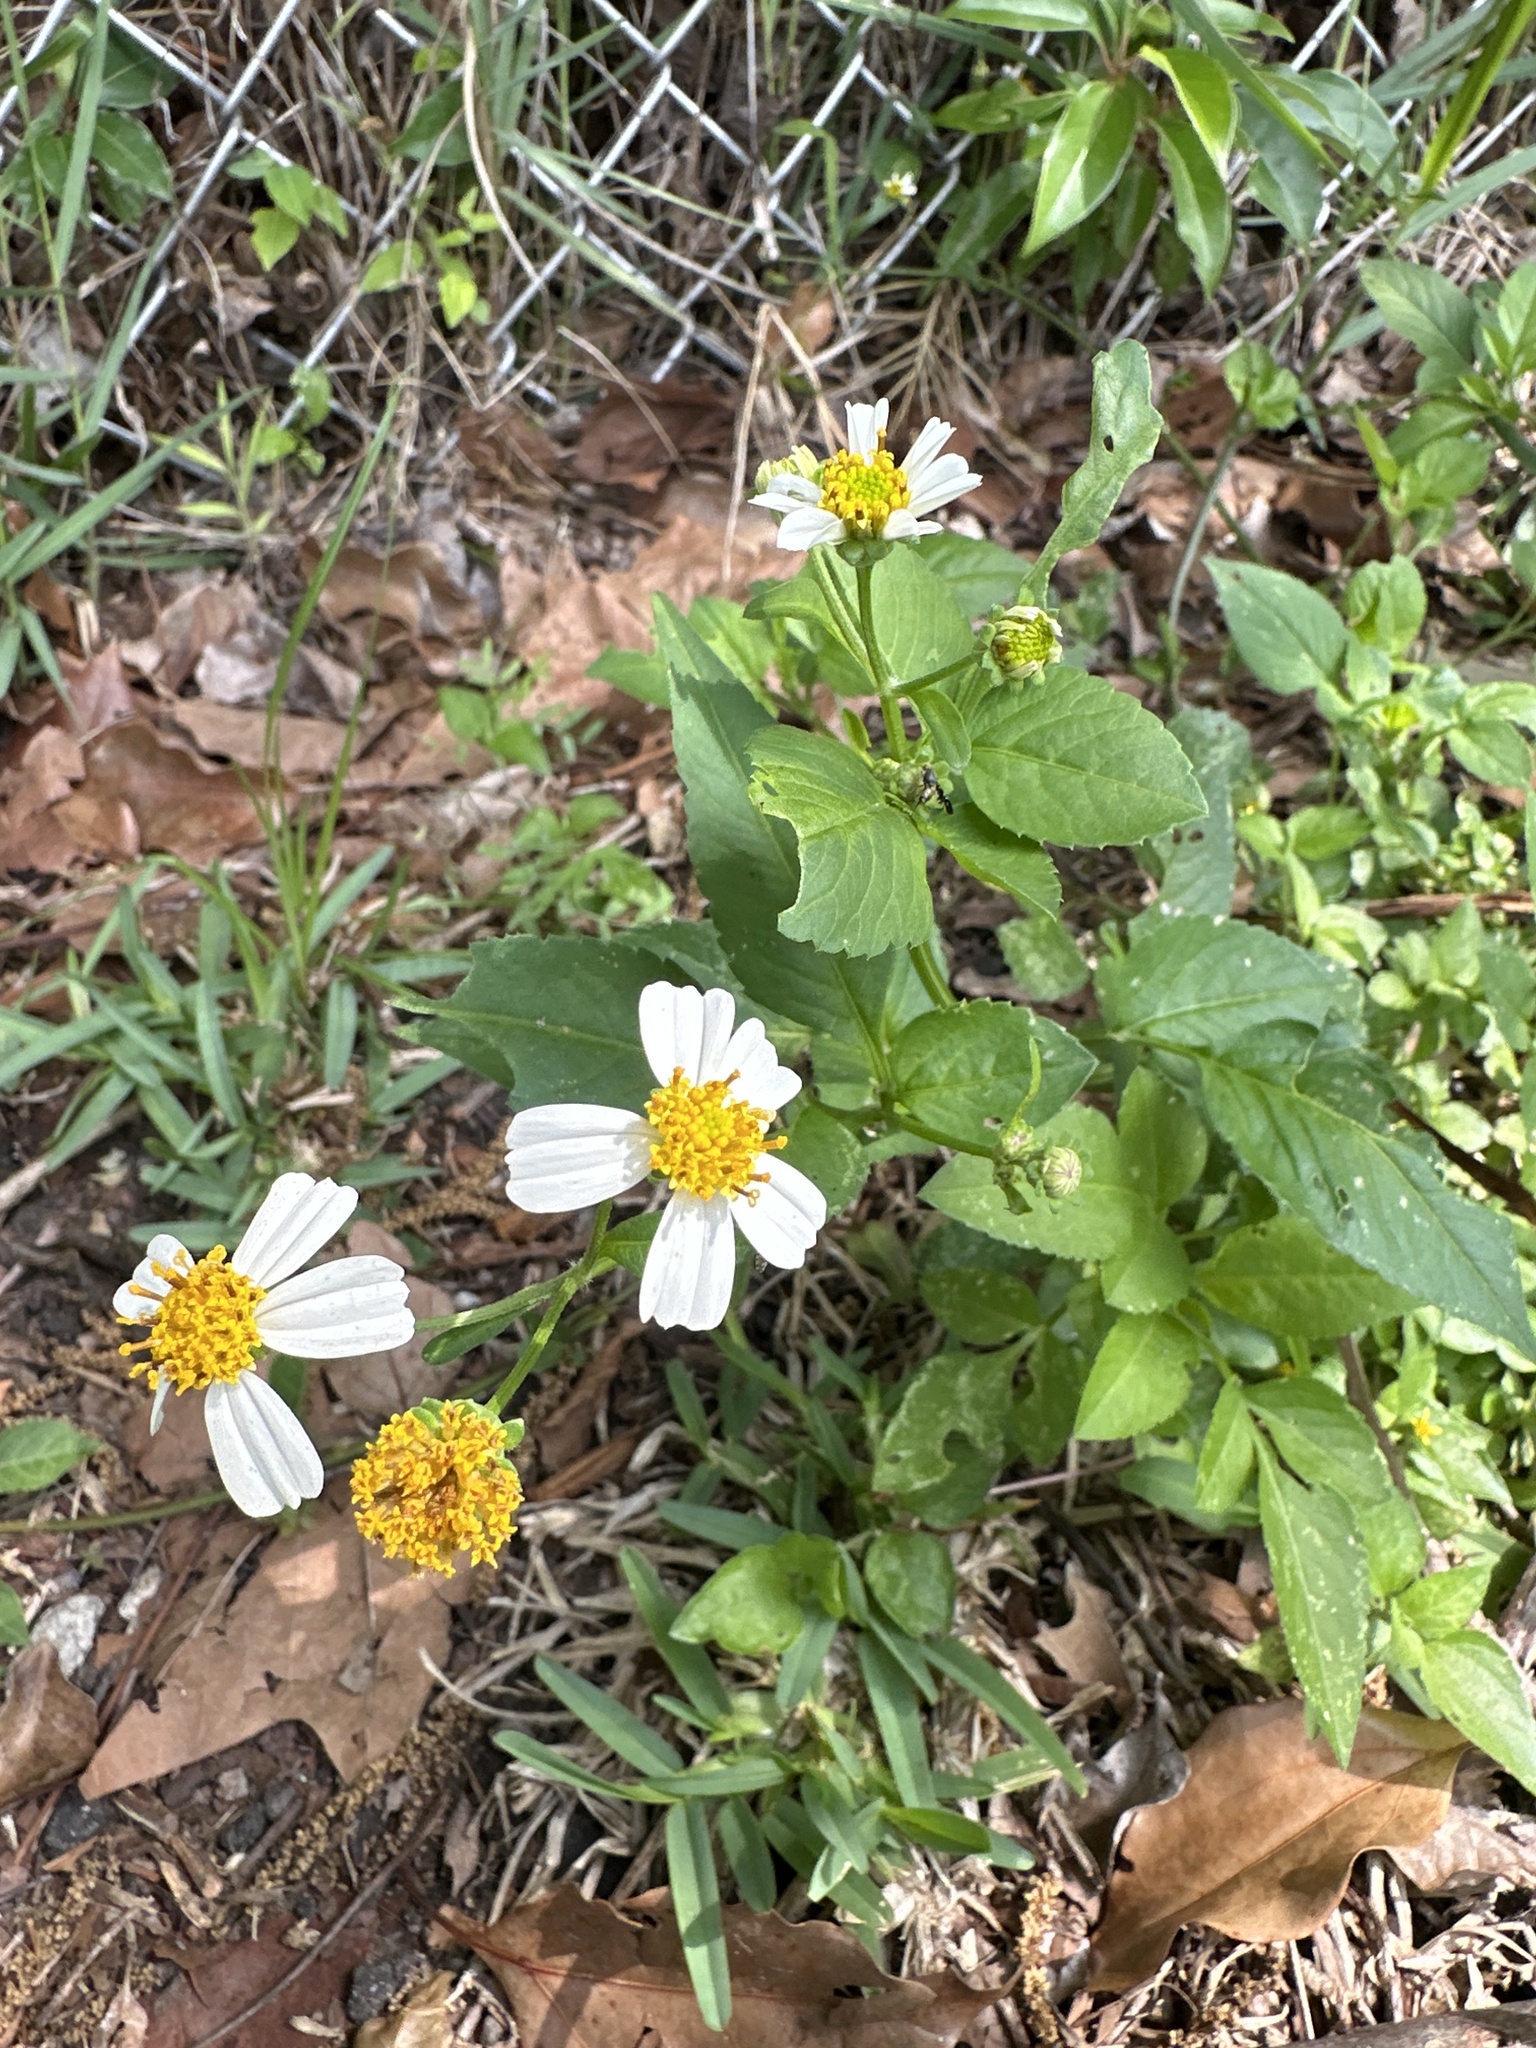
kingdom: Plantae
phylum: Tracheophyta
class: Magnoliopsida
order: Asterales
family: Asteraceae
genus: Bidens
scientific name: Bidens alba
